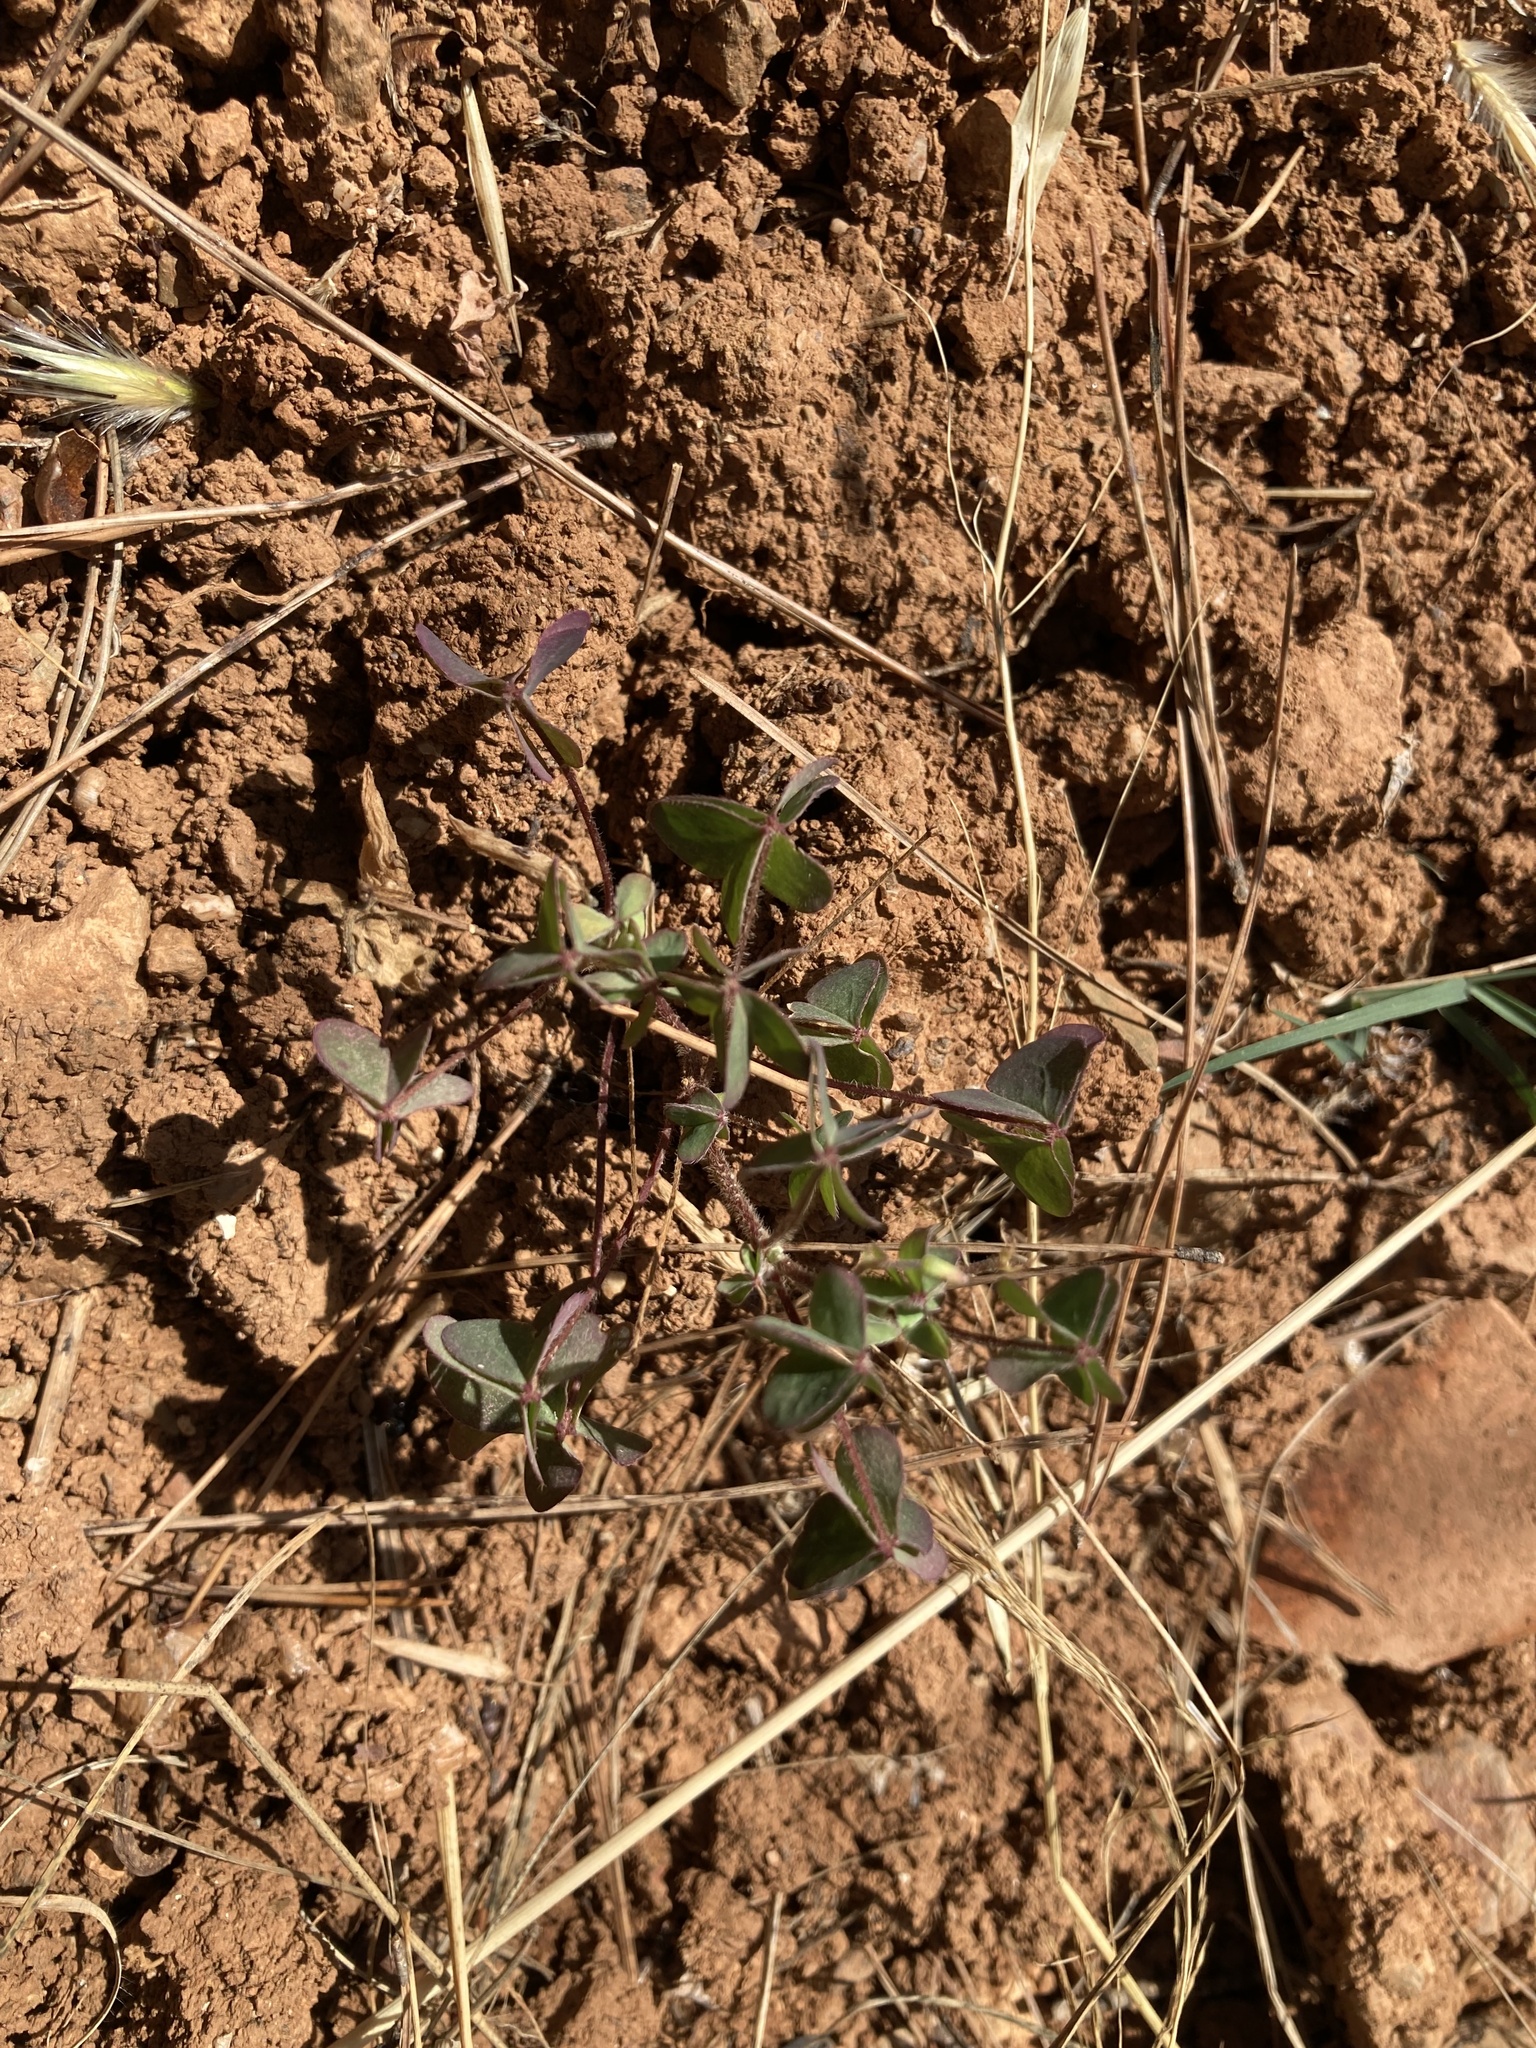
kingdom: Plantae
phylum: Tracheophyta
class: Magnoliopsida
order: Oxalidales
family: Oxalidaceae
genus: Oxalis
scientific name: Oxalis corniculata
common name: Procumbent yellow-sorrel
